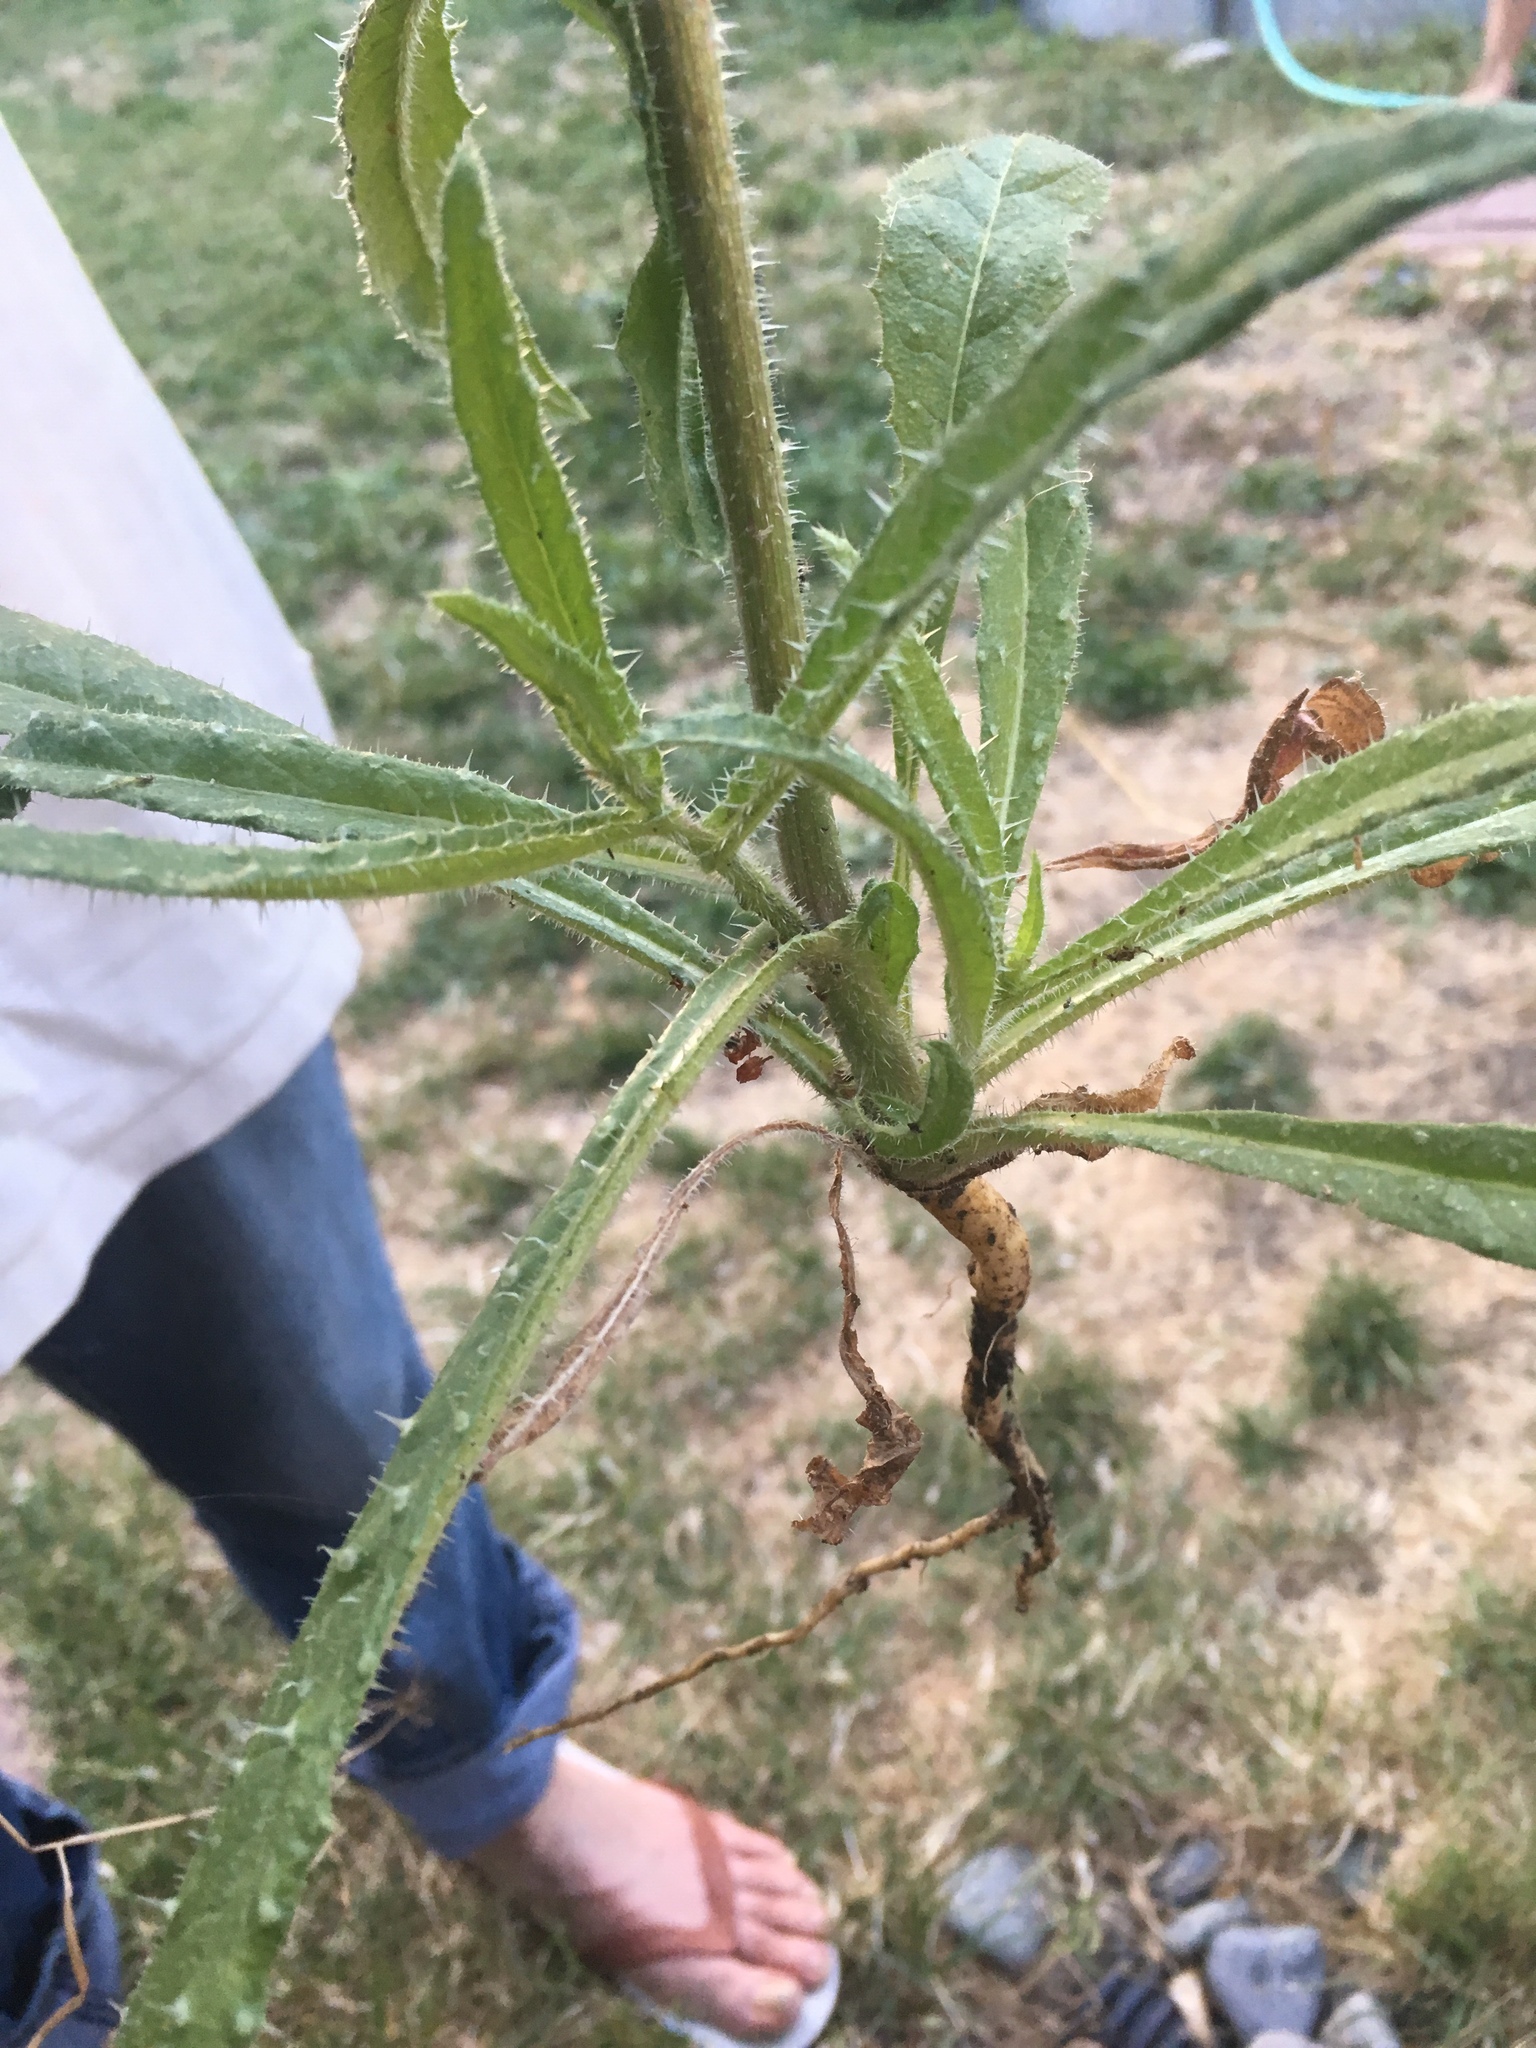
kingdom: Plantae
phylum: Tracheophyta
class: Magnoliopsida
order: Asterales
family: Asteraceae
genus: Helminthotheca
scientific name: Helminthotheca echioides
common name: Ox-tongue
